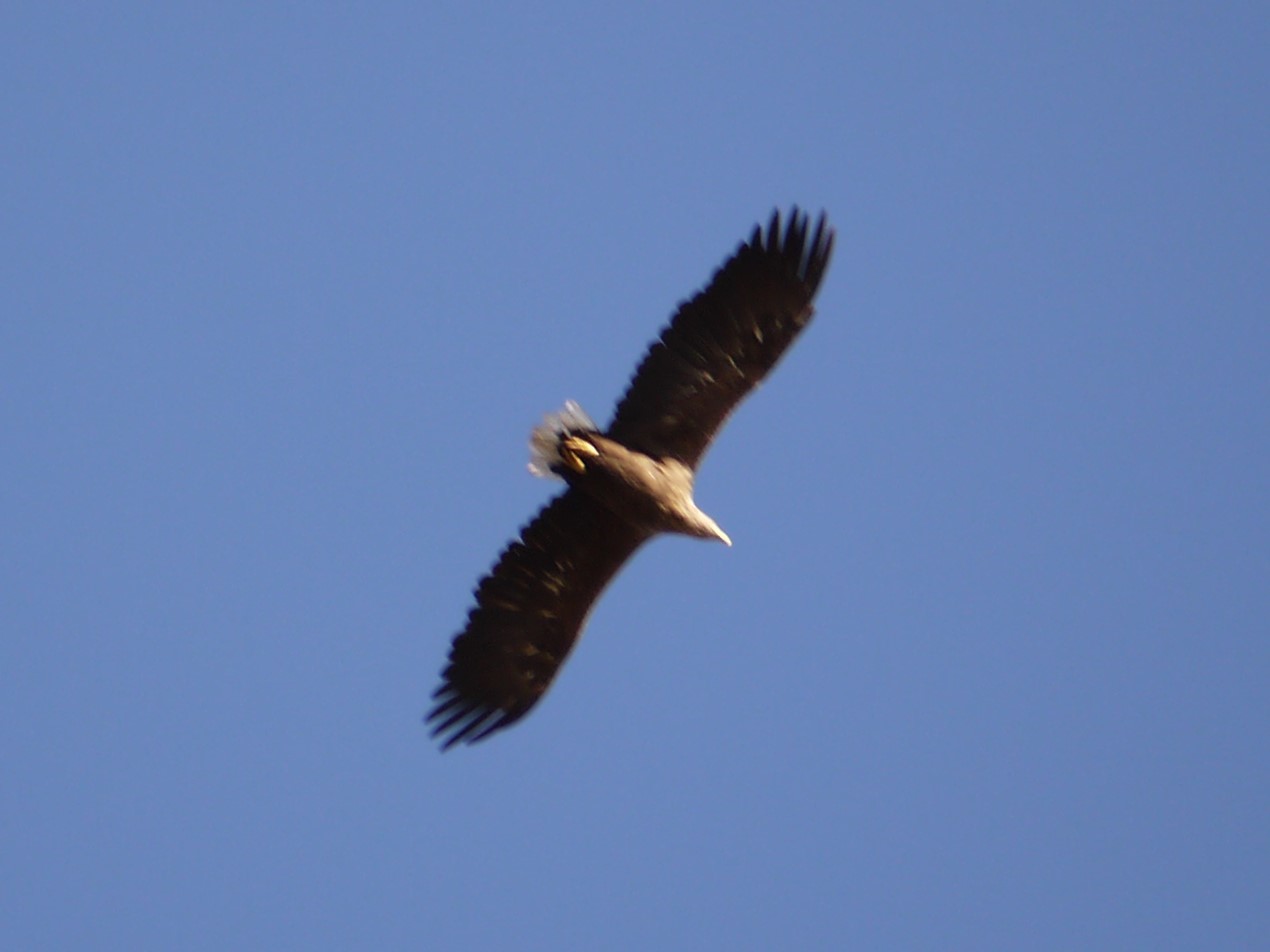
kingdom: Animalia
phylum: Chordata
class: Aves
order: Accipitriformes
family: Accipitridae
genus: Haliaeetus
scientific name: Haliaeetus albicilla
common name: White-tailed eagle
